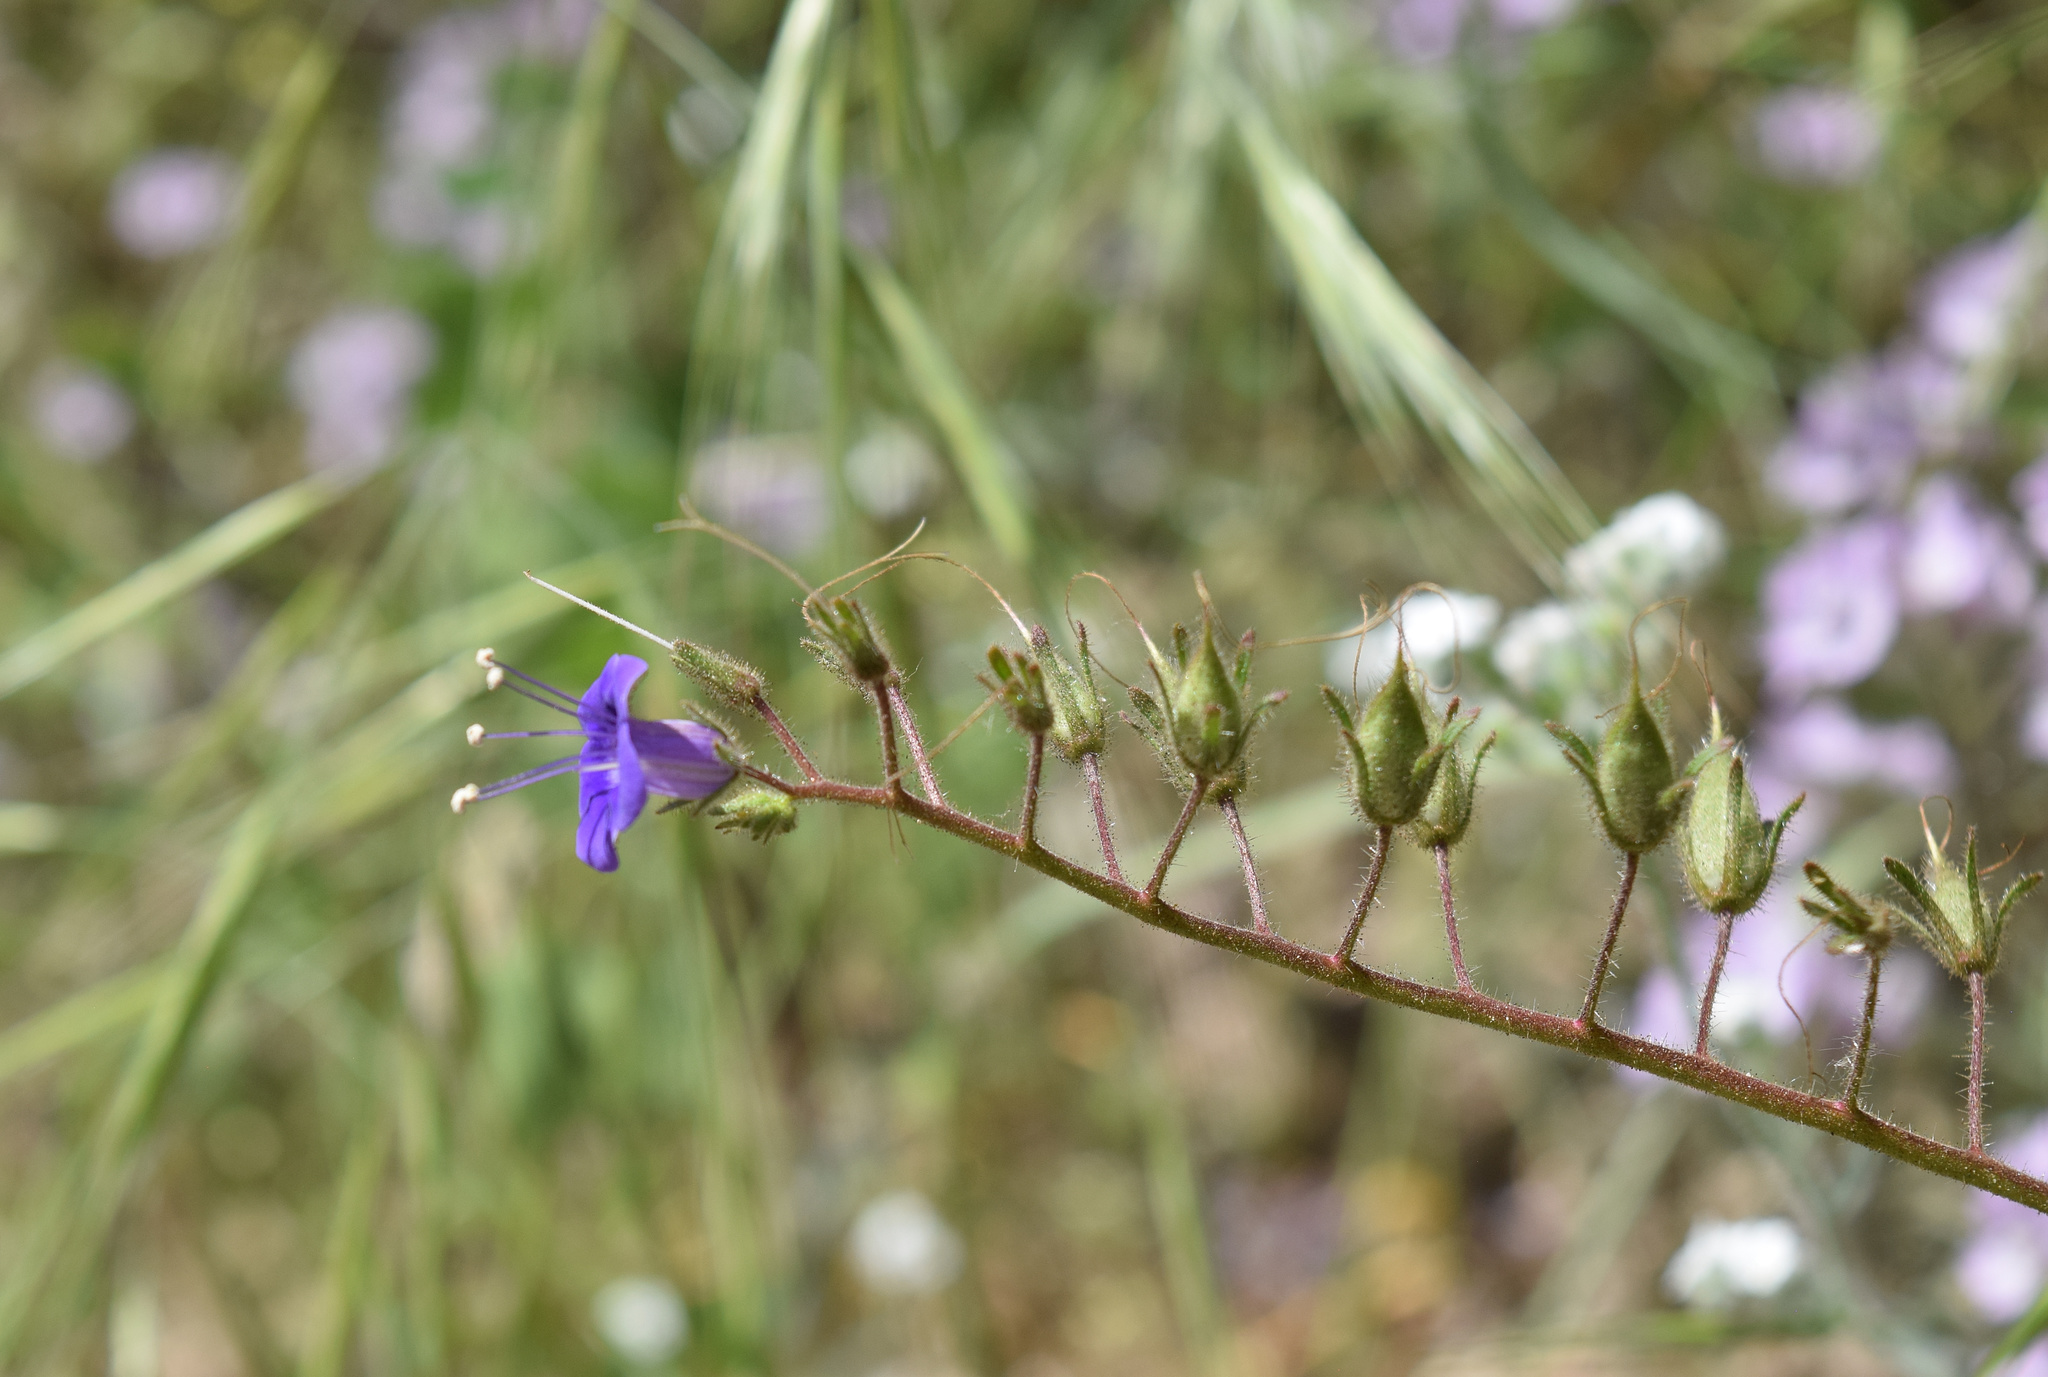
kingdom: Plantae
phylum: Tracheophyta
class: Magnoliopsida
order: Boraginales
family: Hydrophyllaceae
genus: Phacelia
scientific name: Phacelia minor
